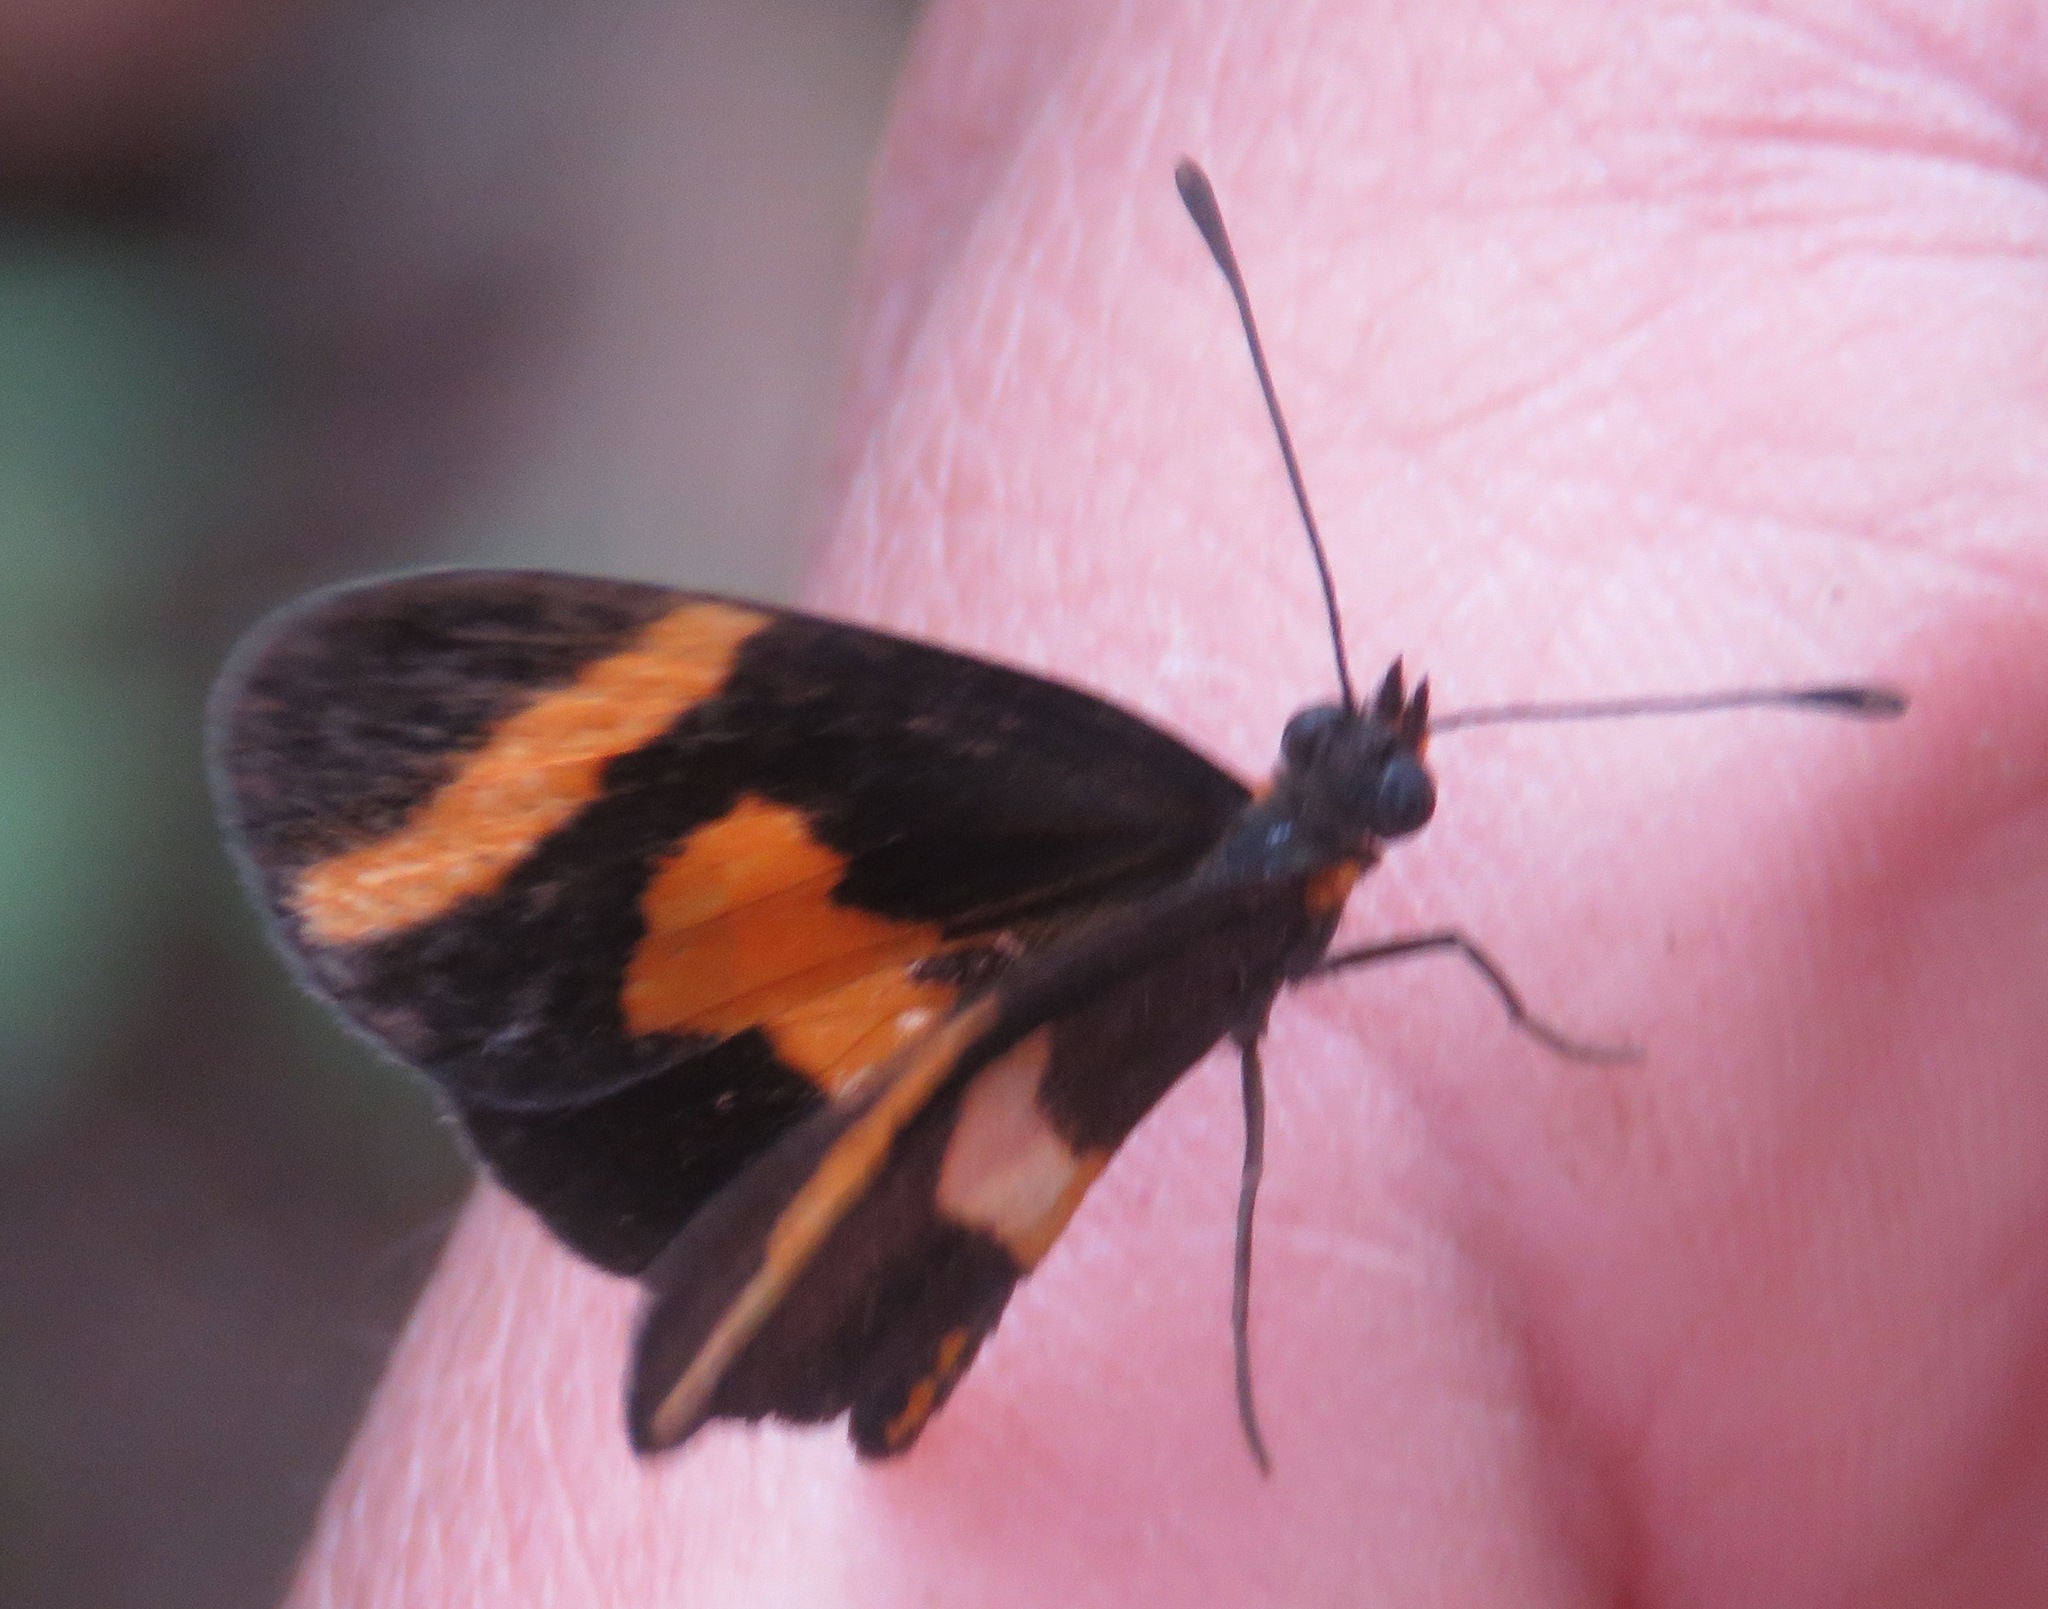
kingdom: Animalia
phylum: Arthropoda
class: Insecta
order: Lepidoptera
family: Nymphalidae
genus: Microtia
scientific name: Microtia elva
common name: Elf
